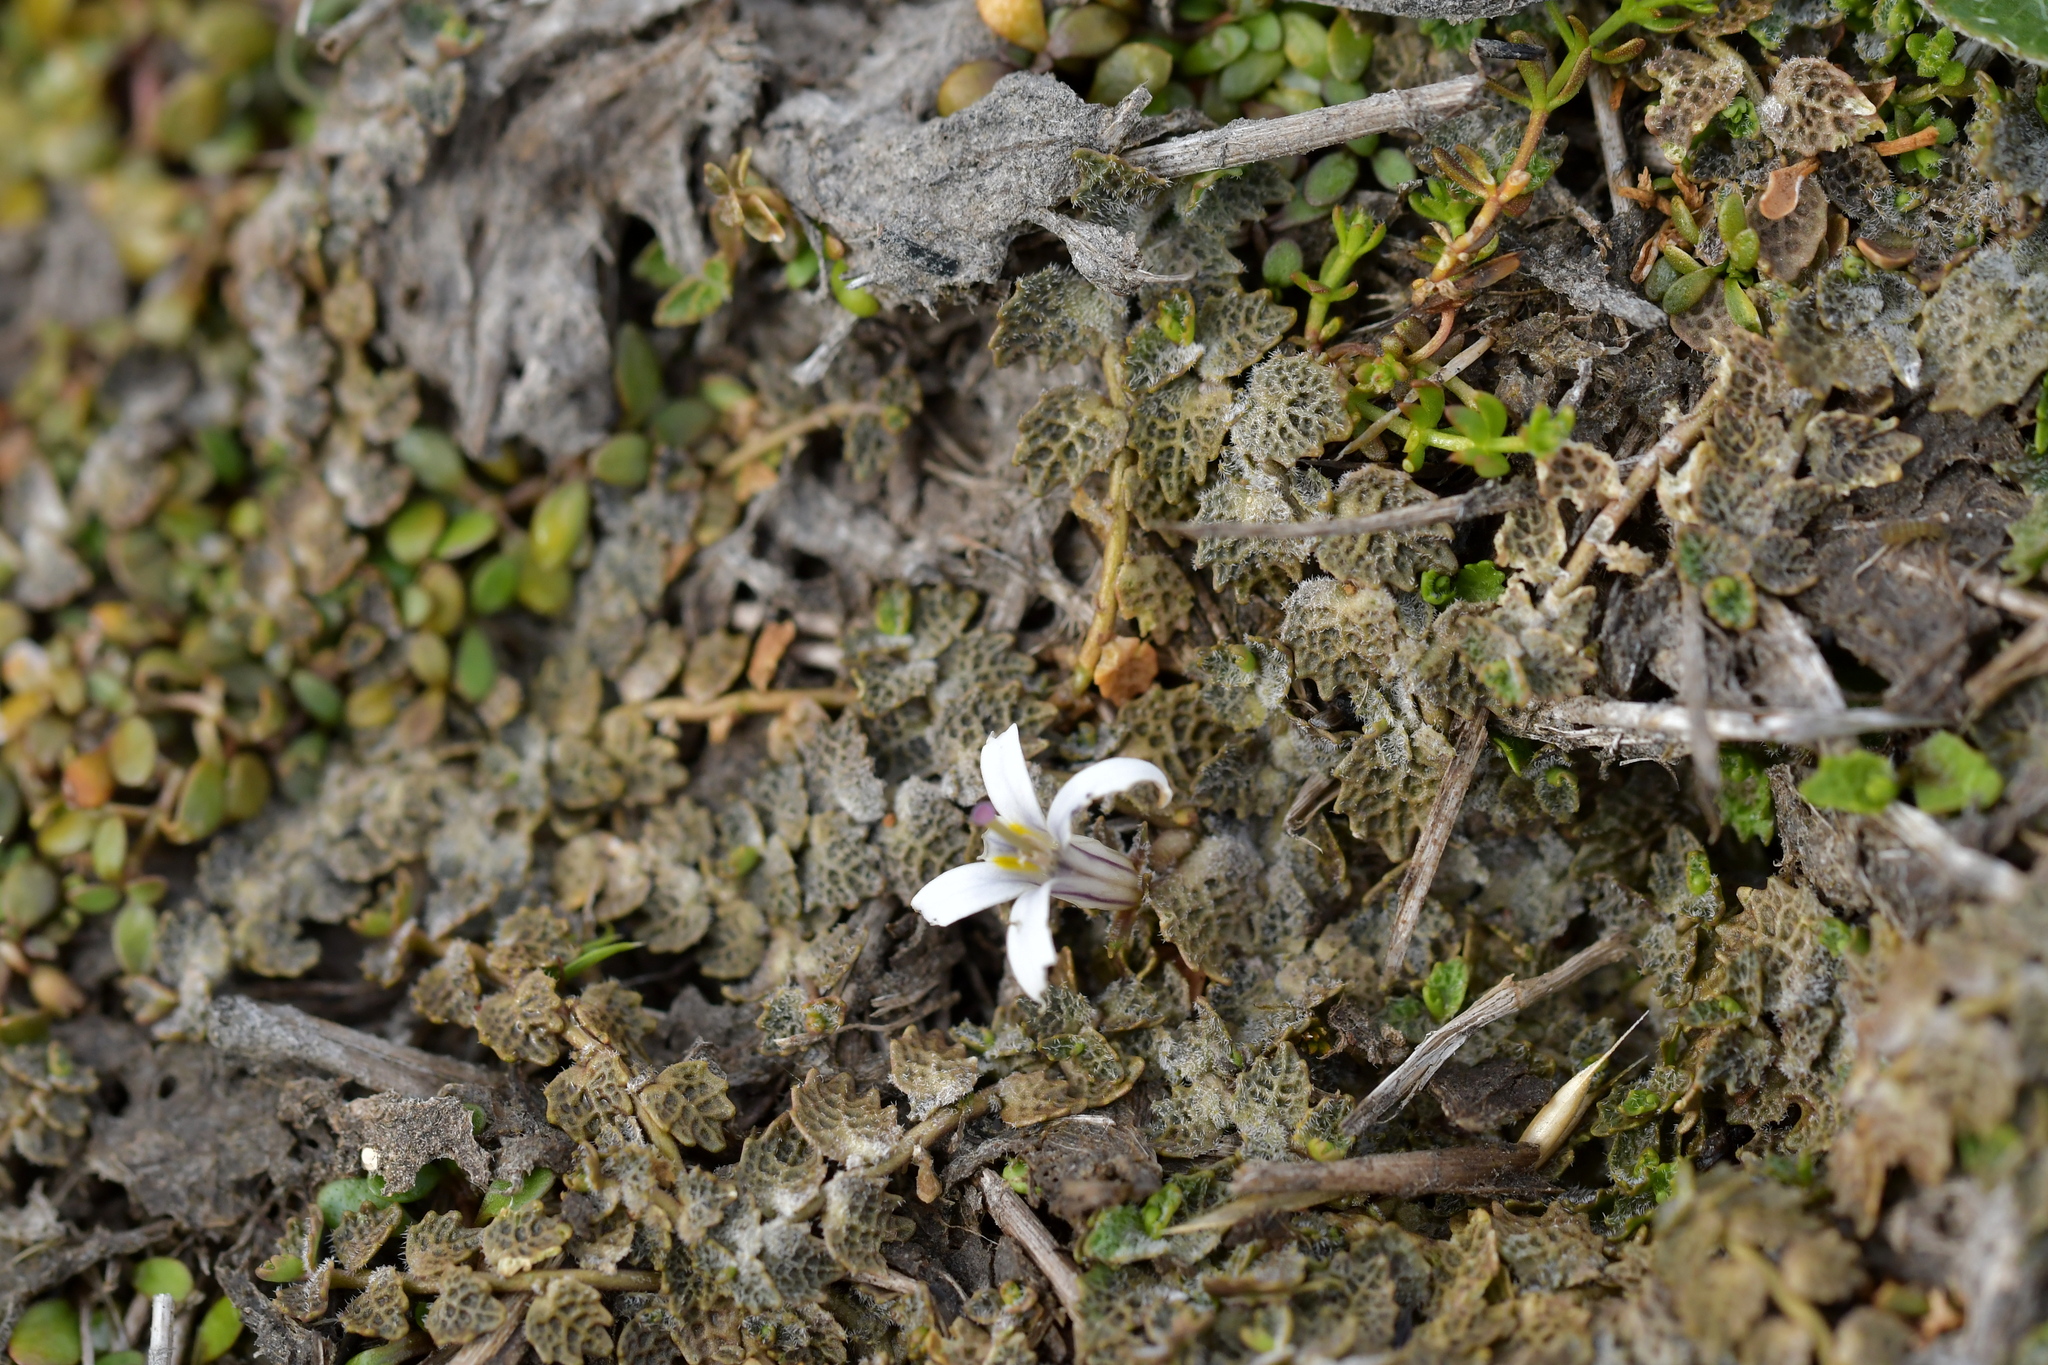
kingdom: Plantae
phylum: Tracheophyta
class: Magnoliopsida
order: Asterales
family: Campanulaceae
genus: Lobelia
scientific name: Lobelia perpusilla
